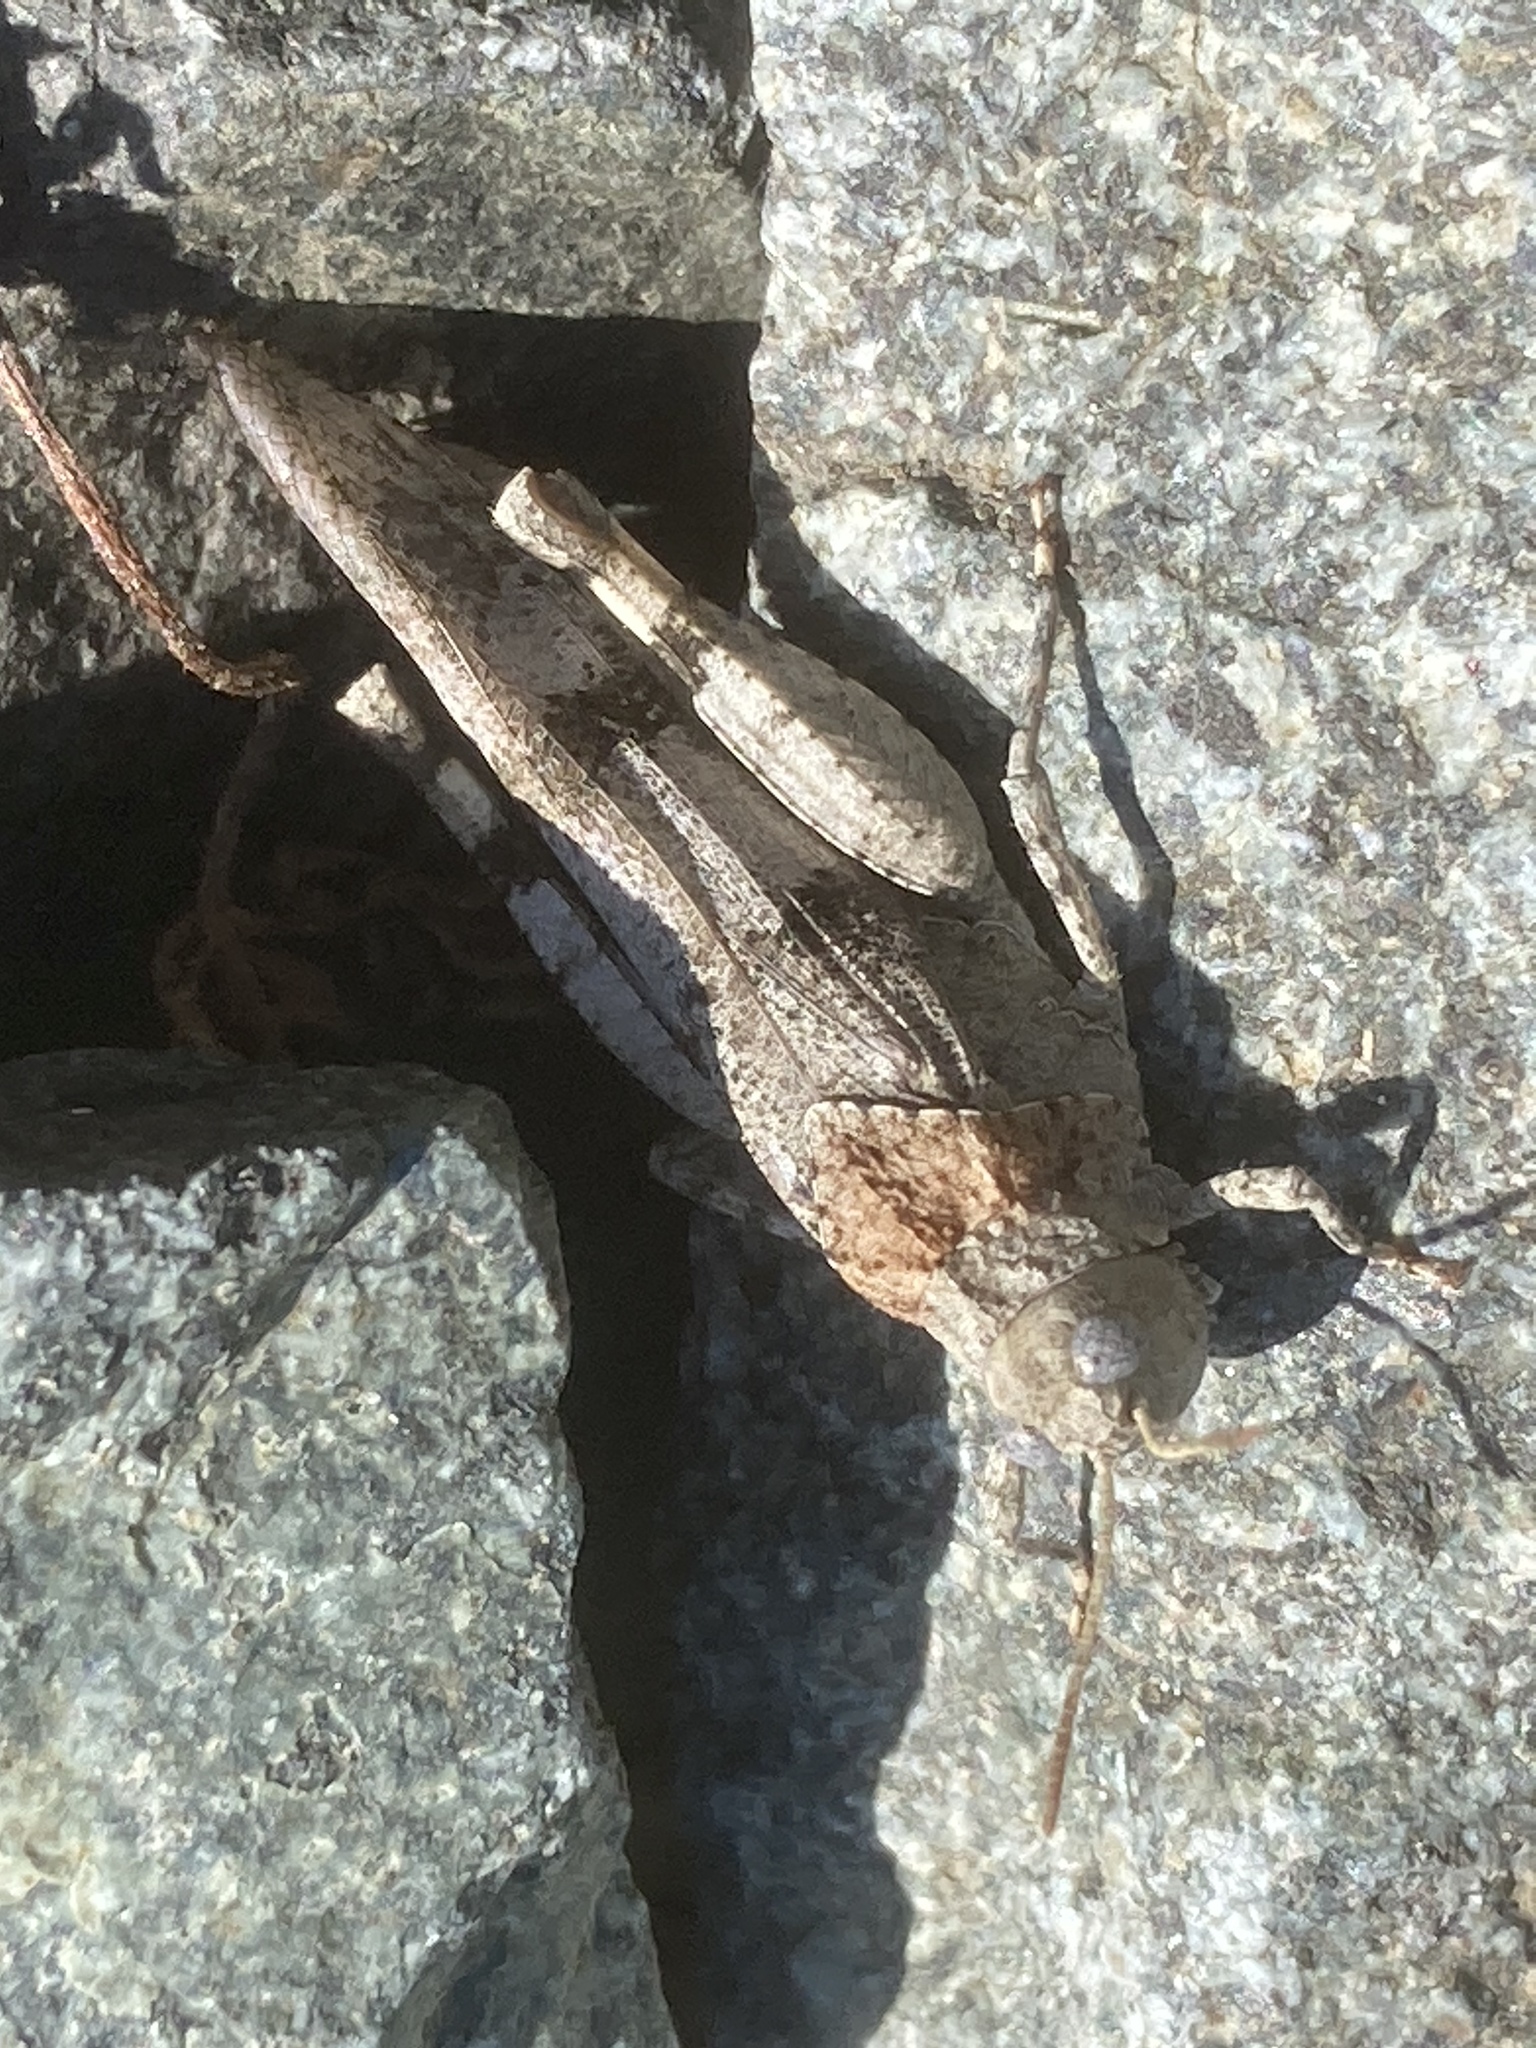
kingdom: Animalia
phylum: Arthropoda
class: Insecta
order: Orthoptera
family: Acrididae
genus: Oedipoda
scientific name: Oedipoda caerulescens
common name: Blue-winged grasshopper
